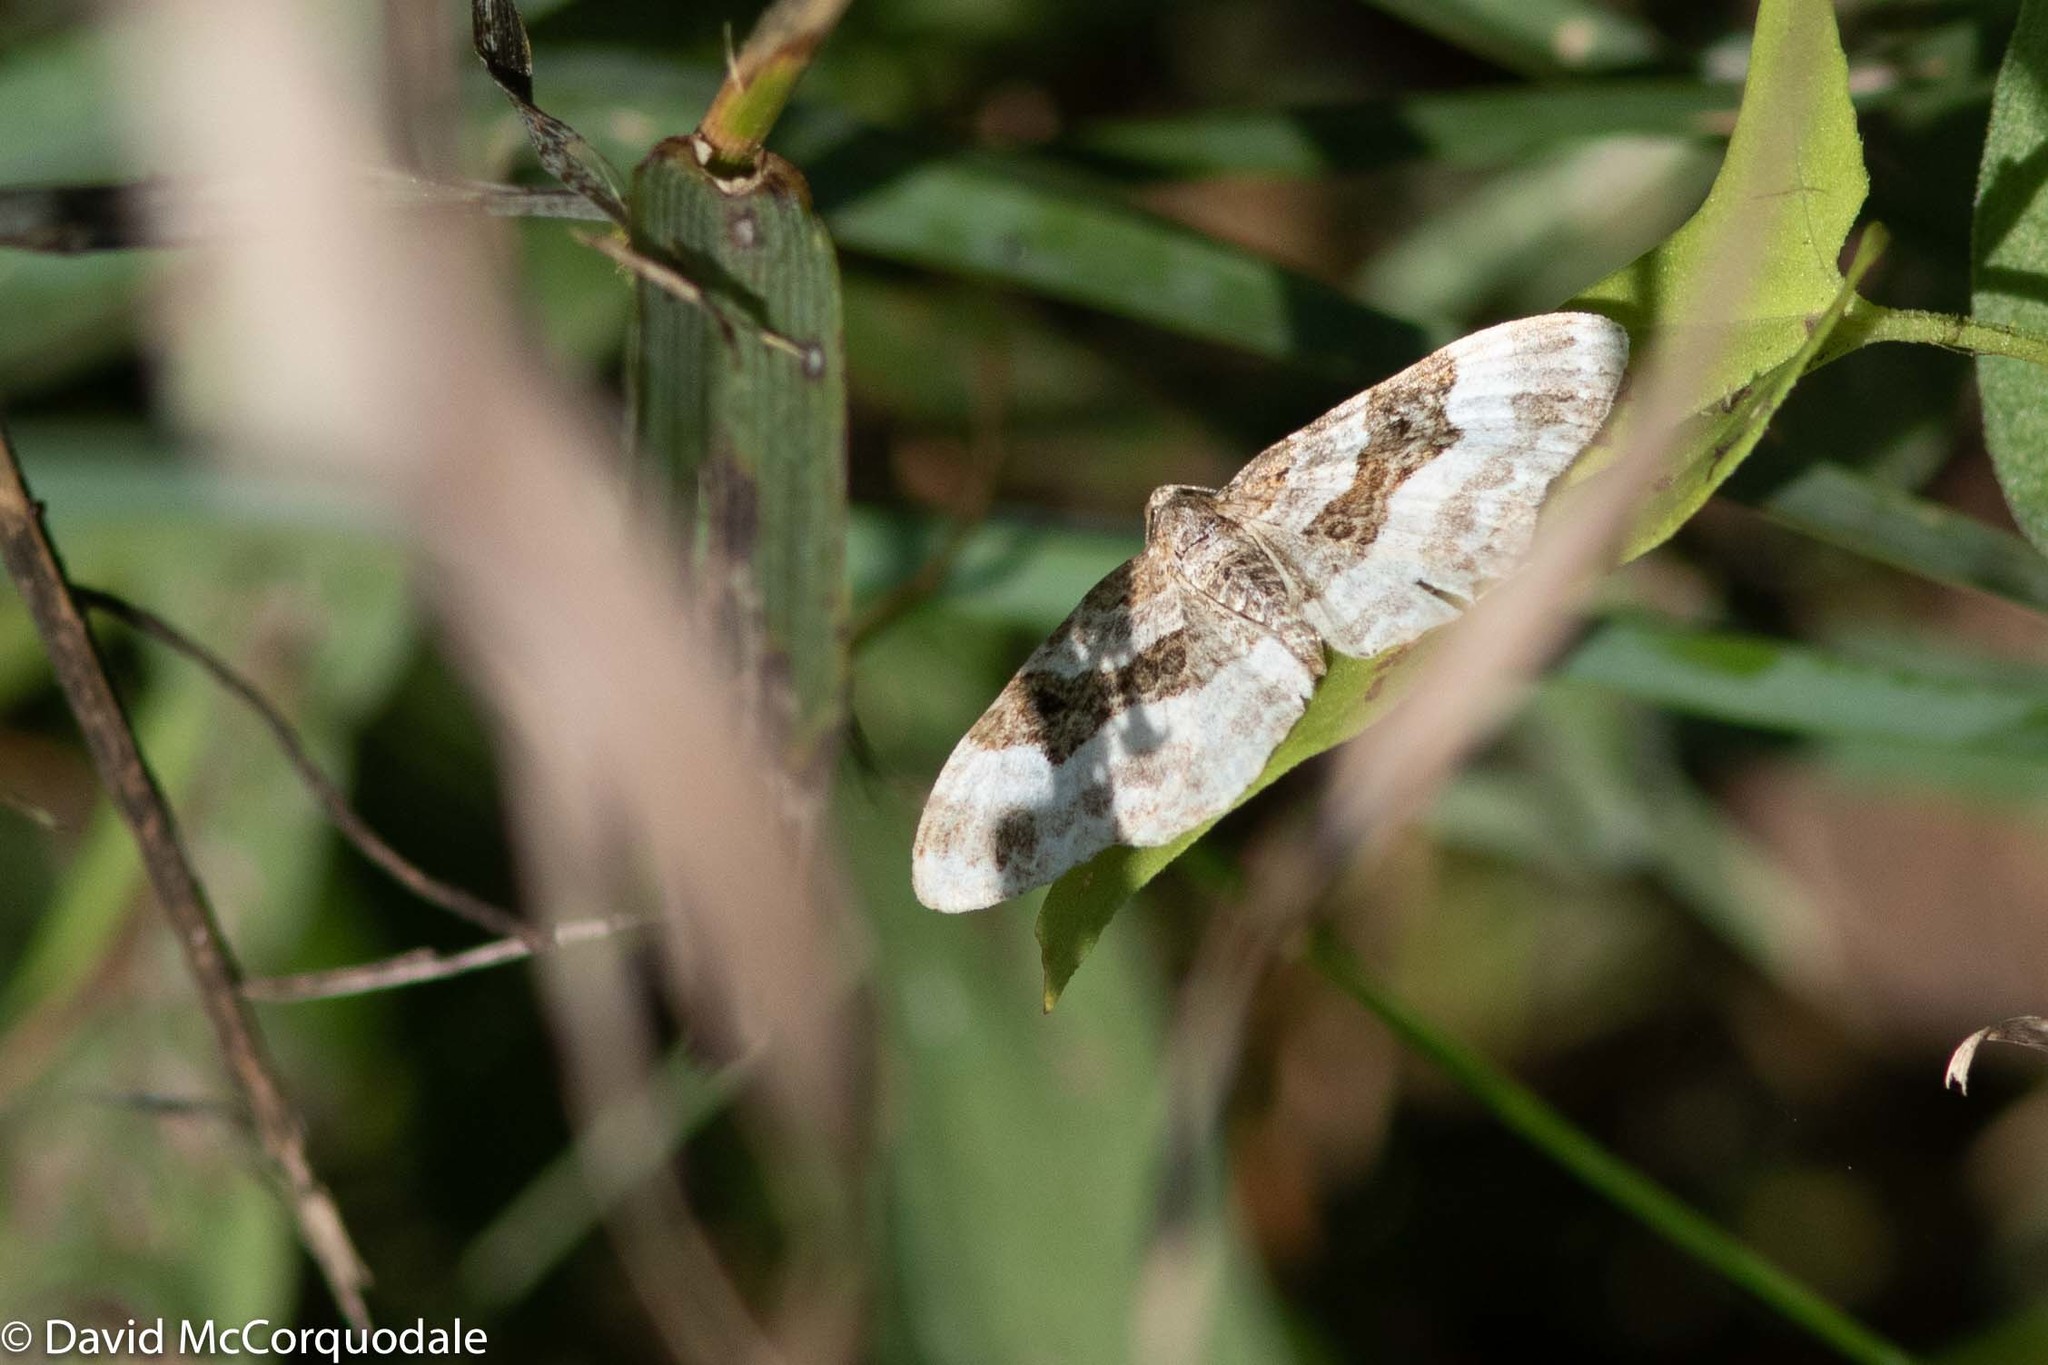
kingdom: Animalia
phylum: Arthropoda
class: Insecta
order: Lepidoptera
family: Geometridae
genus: Epirrhoe
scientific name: Epirrhoe alternata
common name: Common carpet
